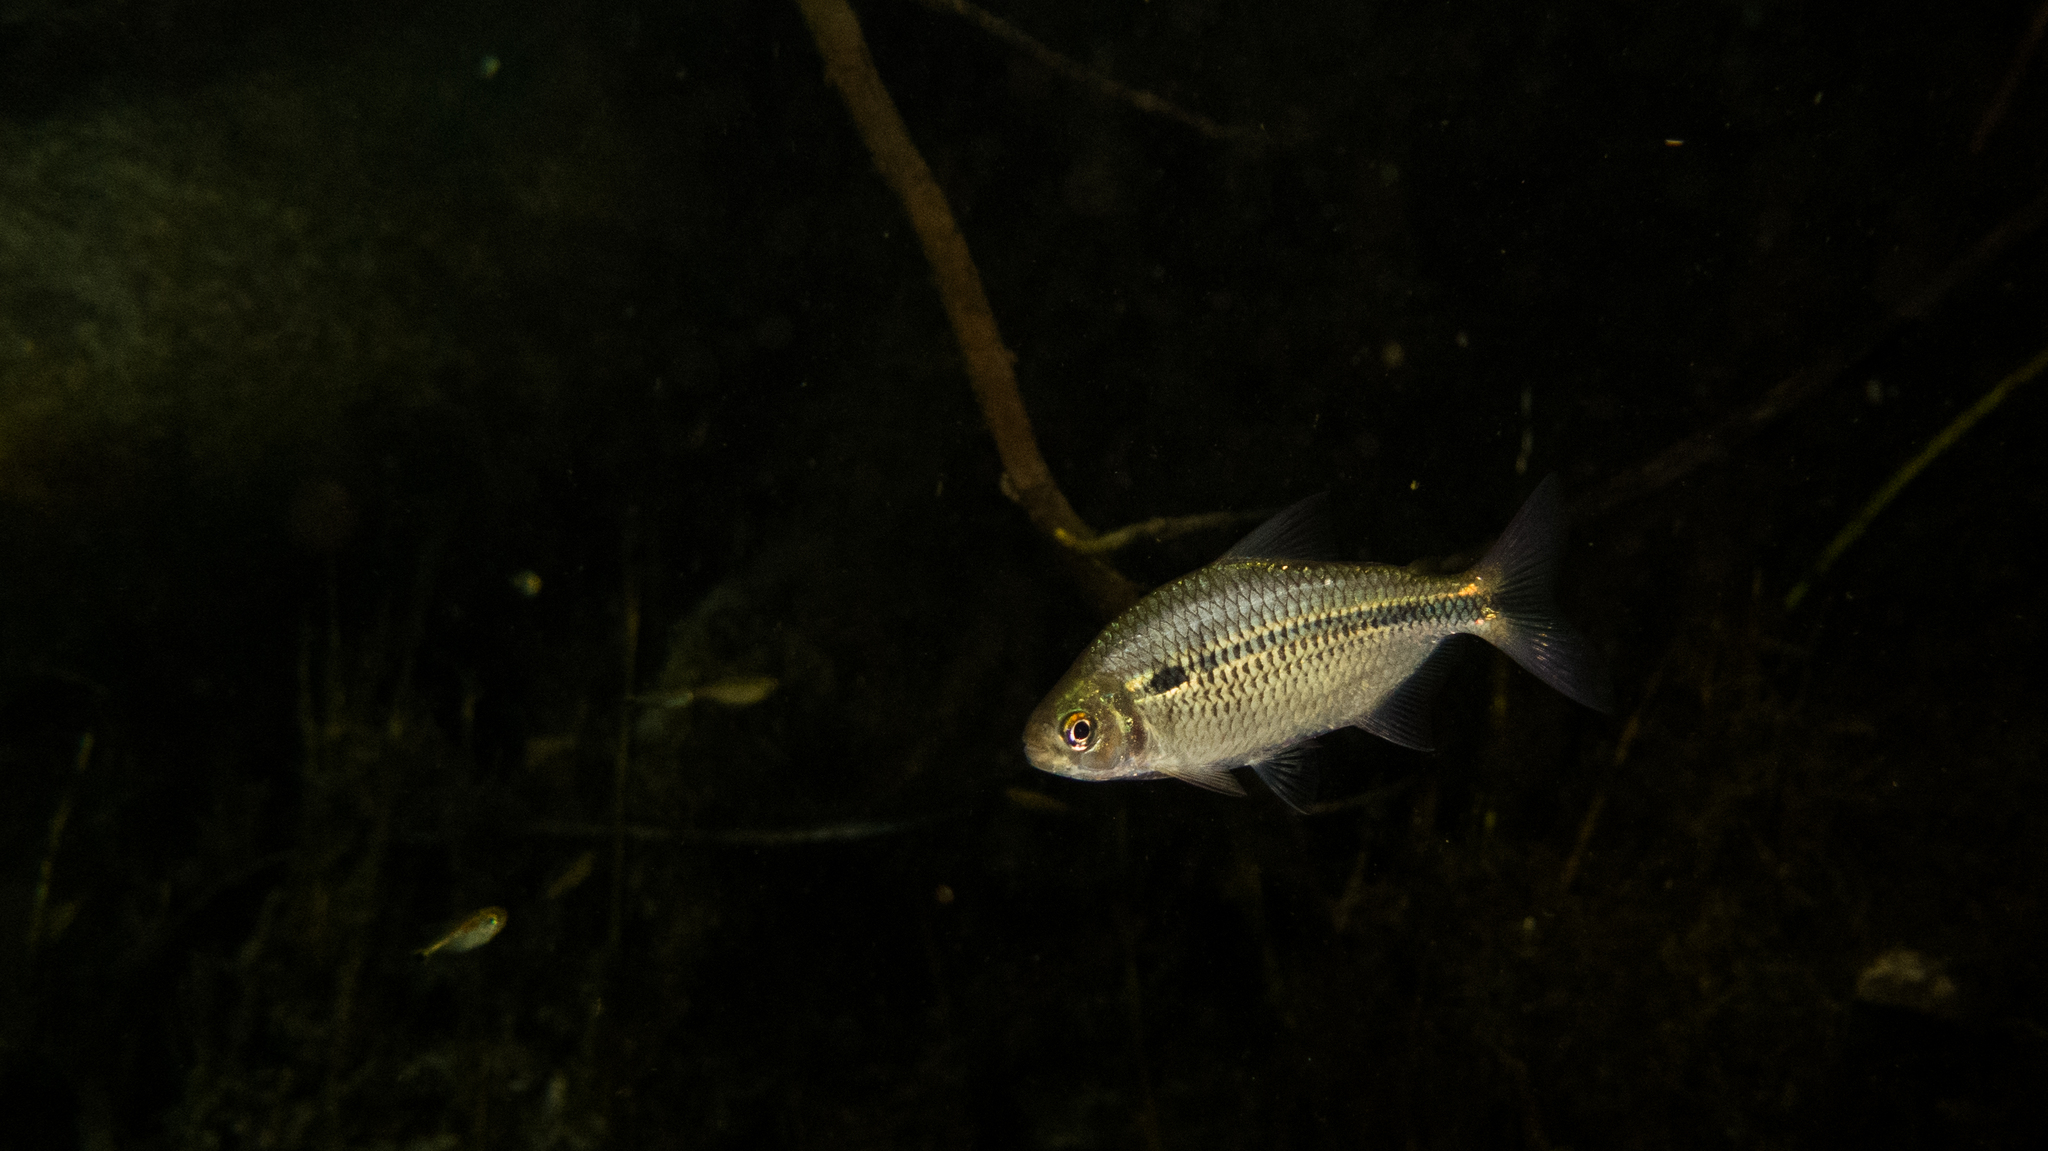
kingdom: Animalia
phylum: Chordata
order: Characiformes
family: Characidae
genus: Astyanax
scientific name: Astyanax novae
